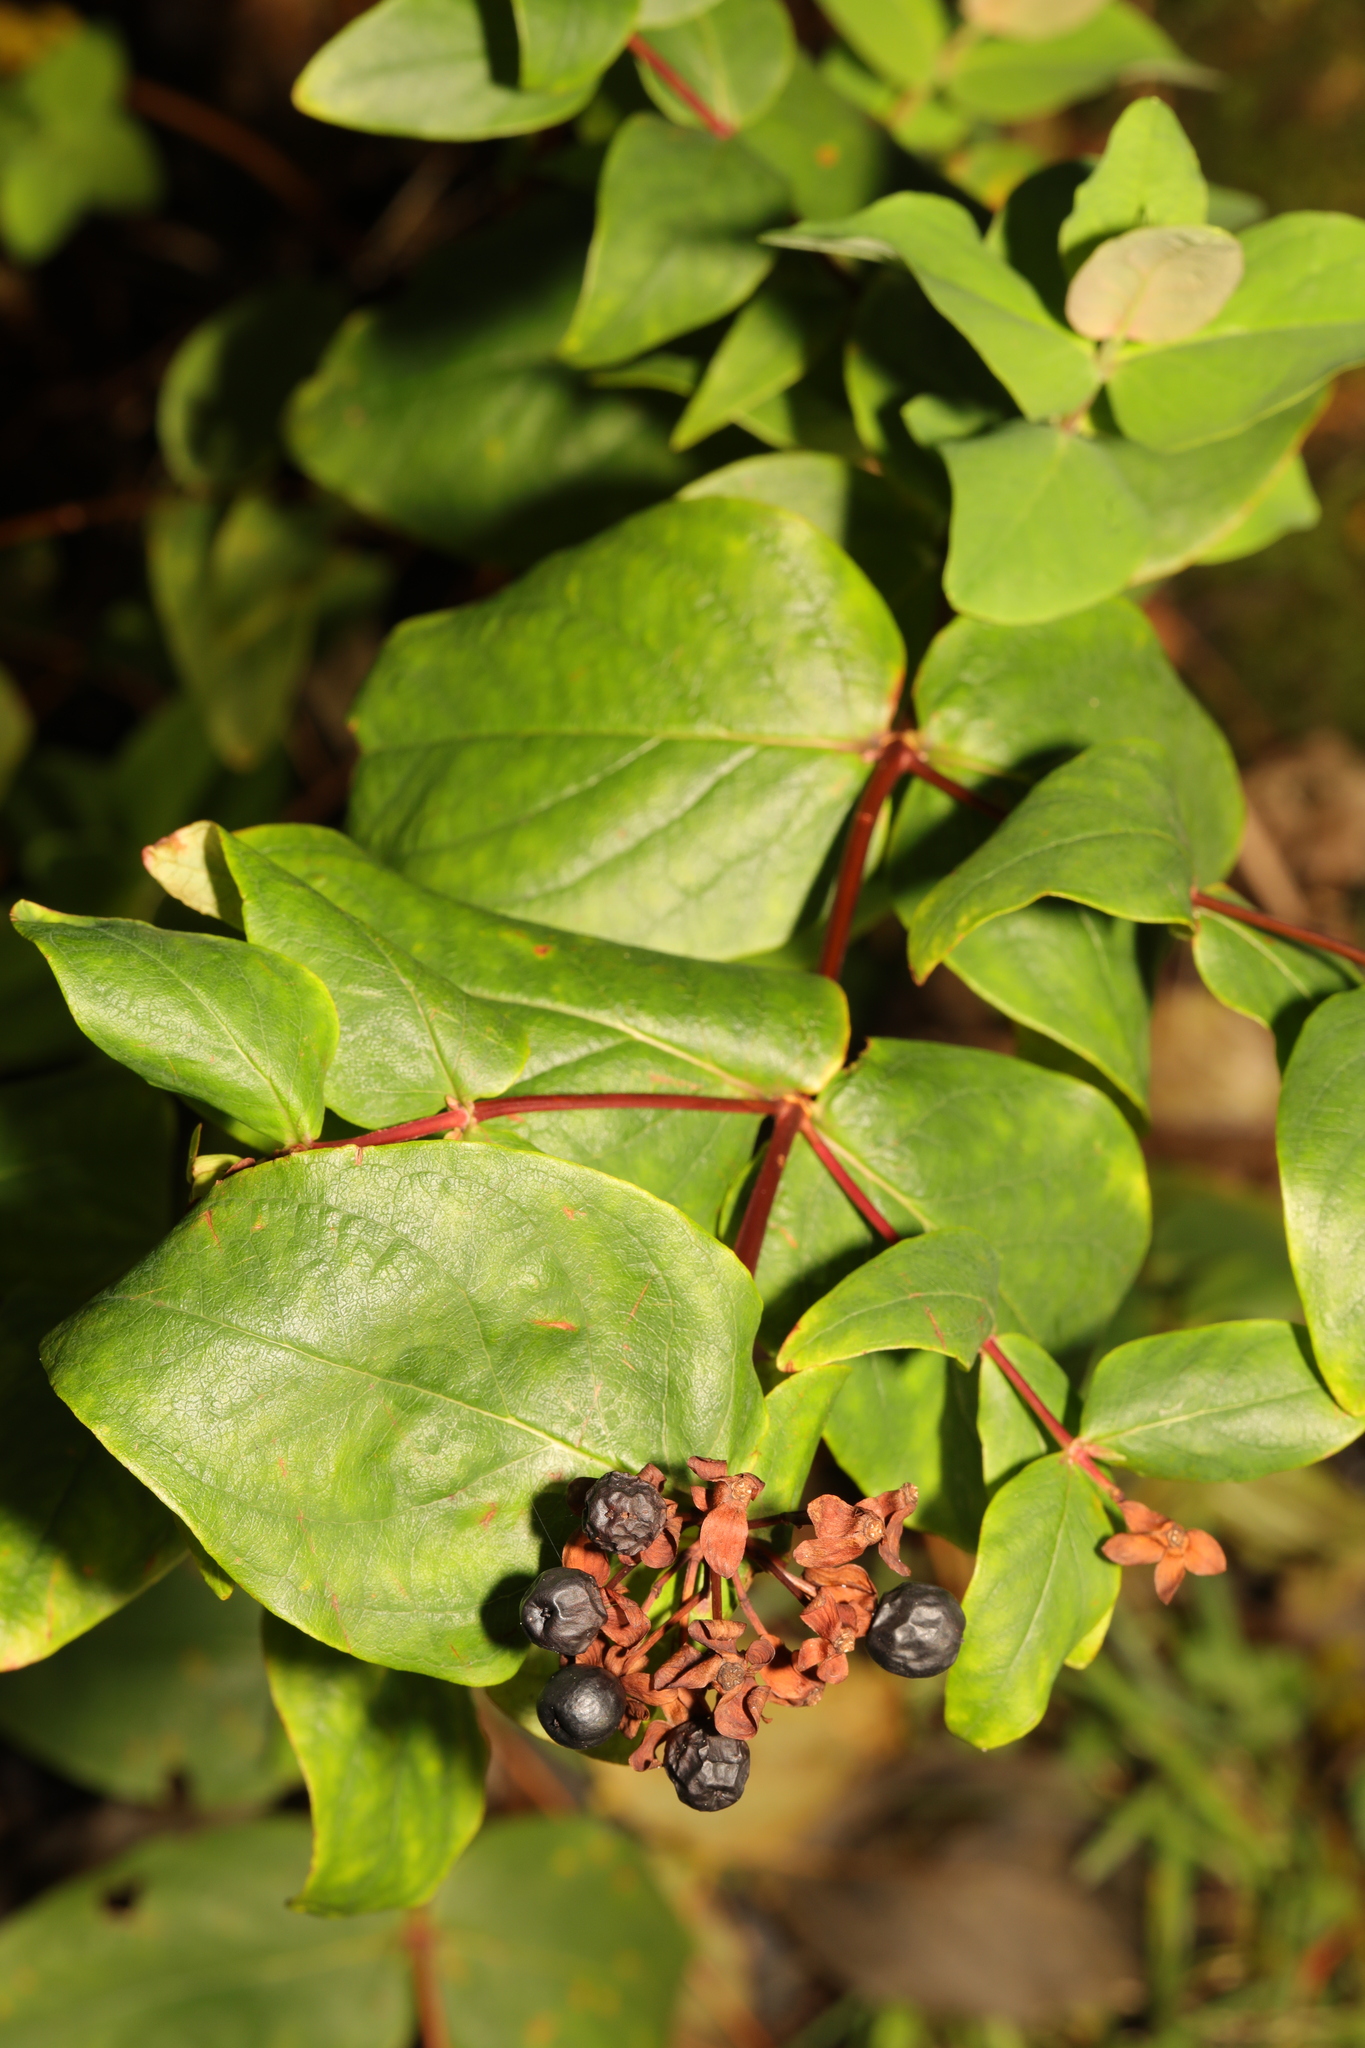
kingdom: Plantae
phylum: Tracheophyta
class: Magnoliopsida
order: Malpighiales
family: Hypericaceae
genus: Hypericum
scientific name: Hypericum androsaemum
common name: Sweet-amber
